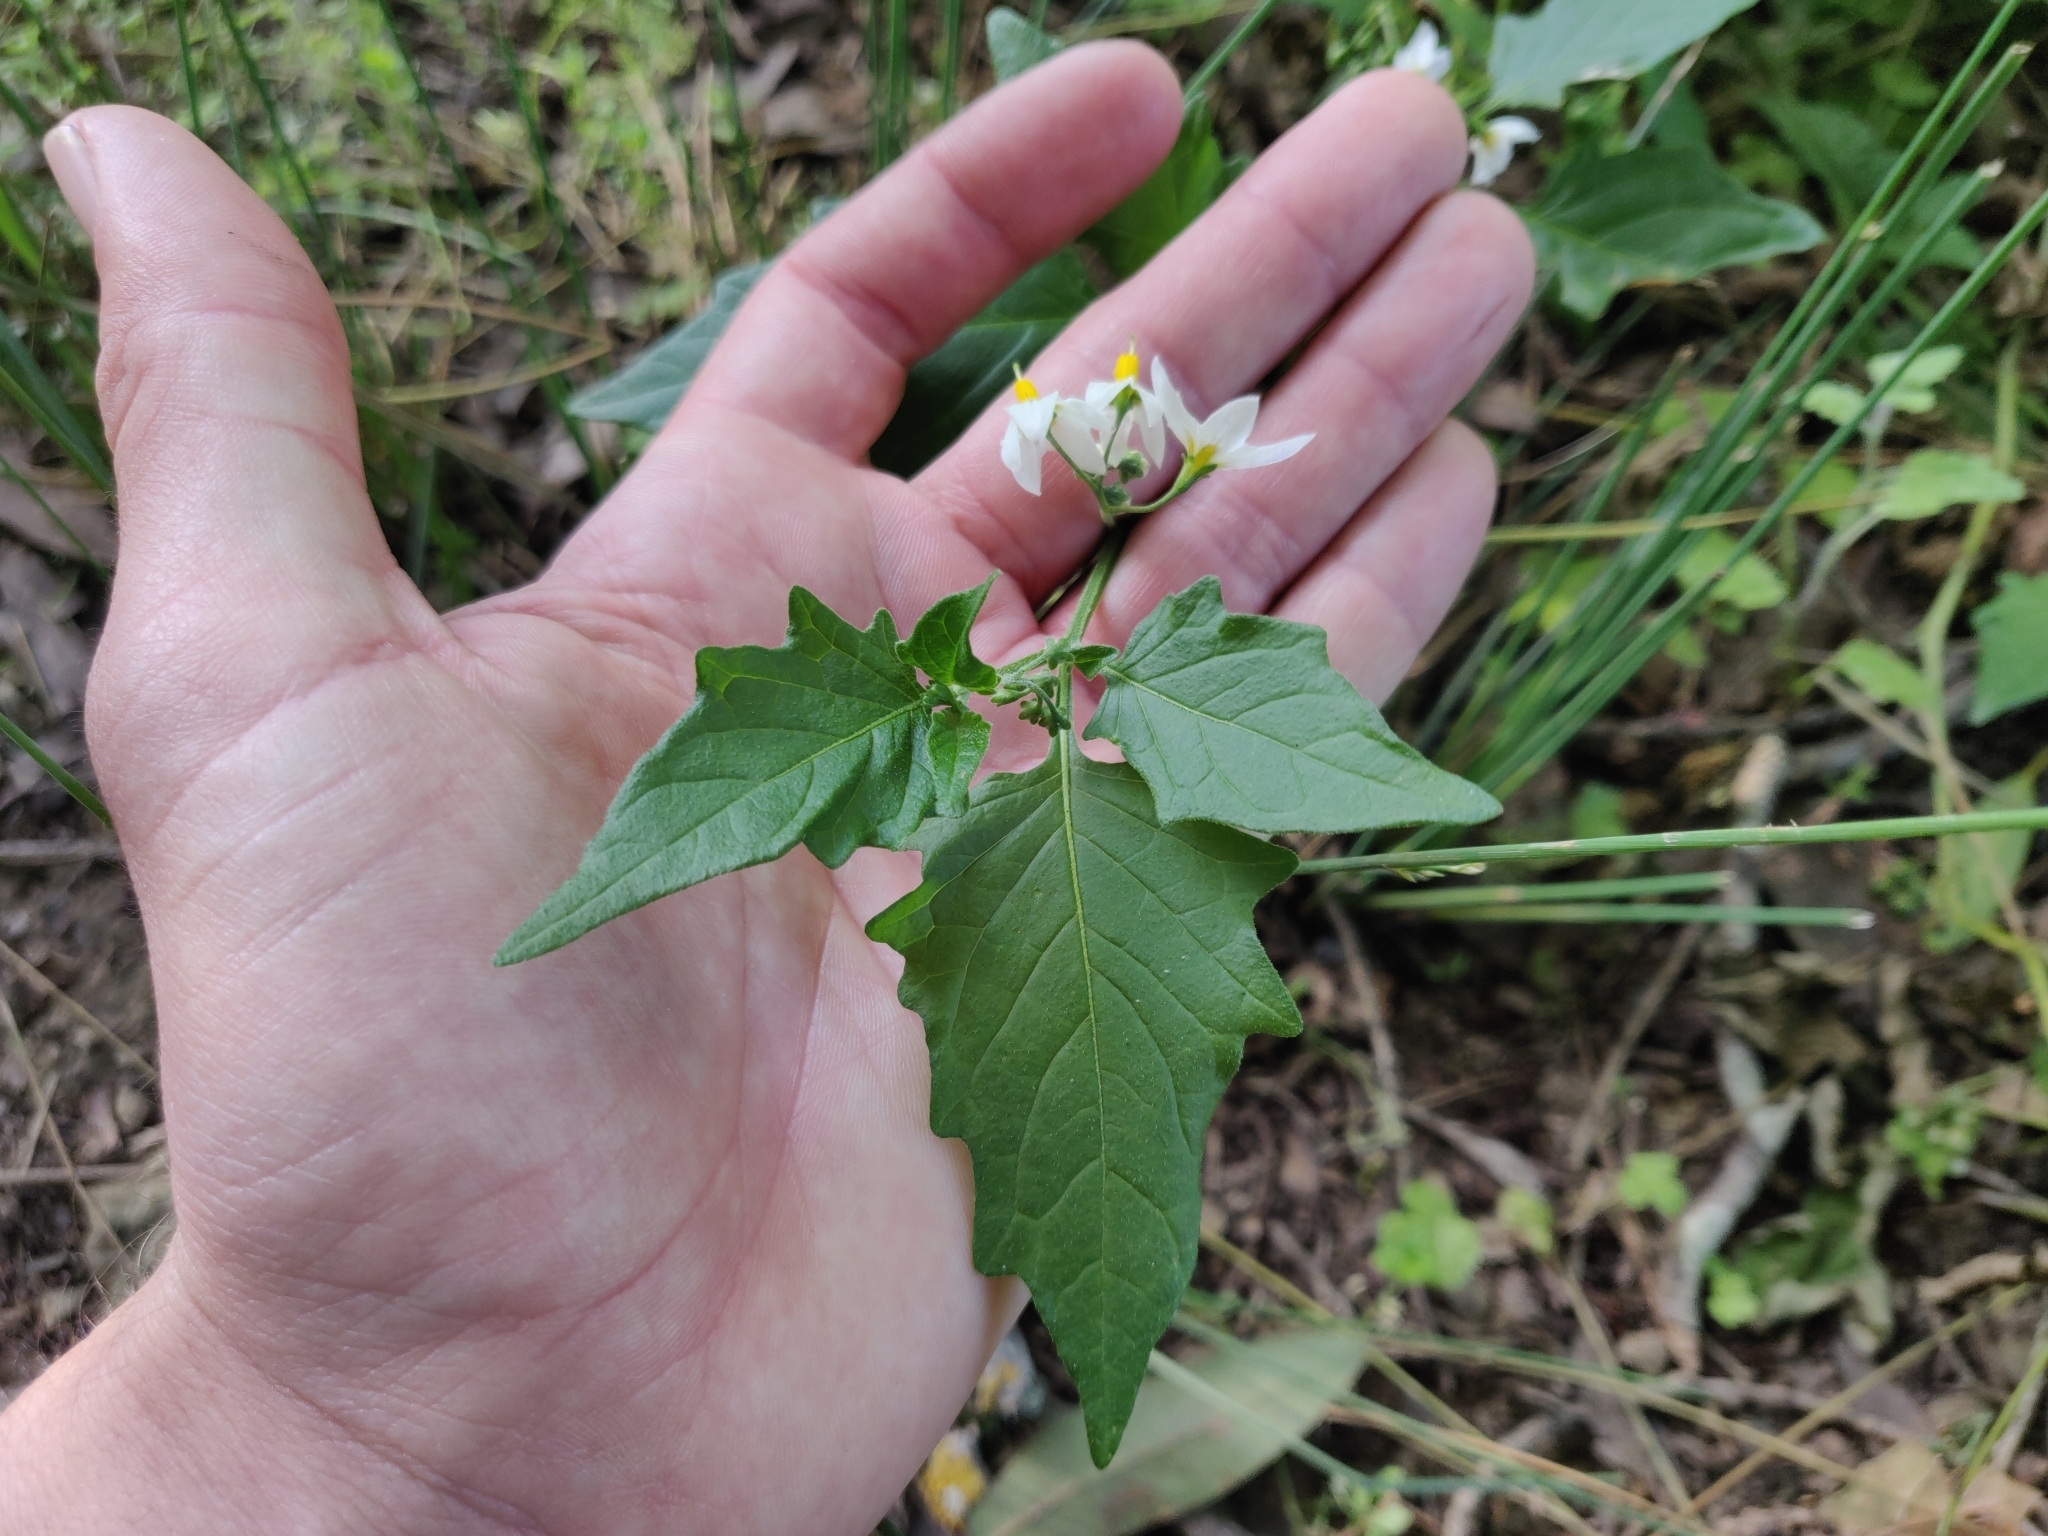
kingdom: Plantae
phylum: Tracheophyta
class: Magnoliopsida
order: Solanales
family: Solanaceae
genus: Solanum
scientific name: Solanum furcatum
